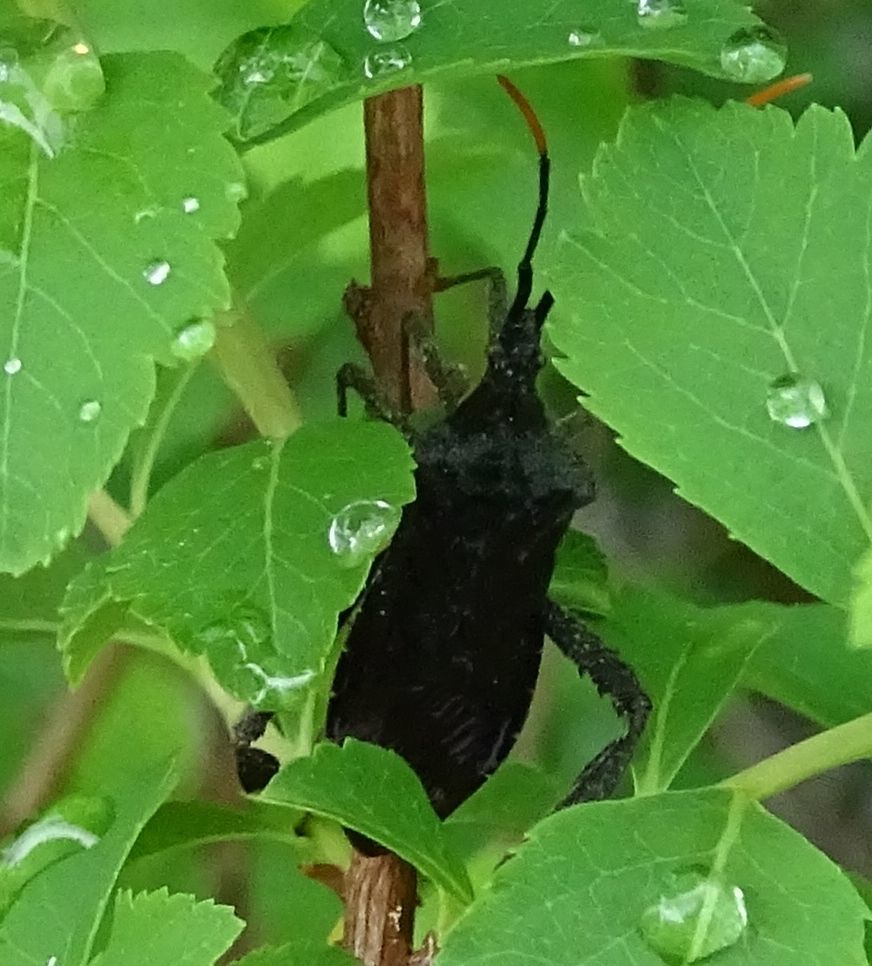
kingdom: Animalia
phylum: Arthropoda
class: Insecta
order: Hemiptera
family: Coreidae
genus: Acanthocephala
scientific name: Acanthocephala terminalis
